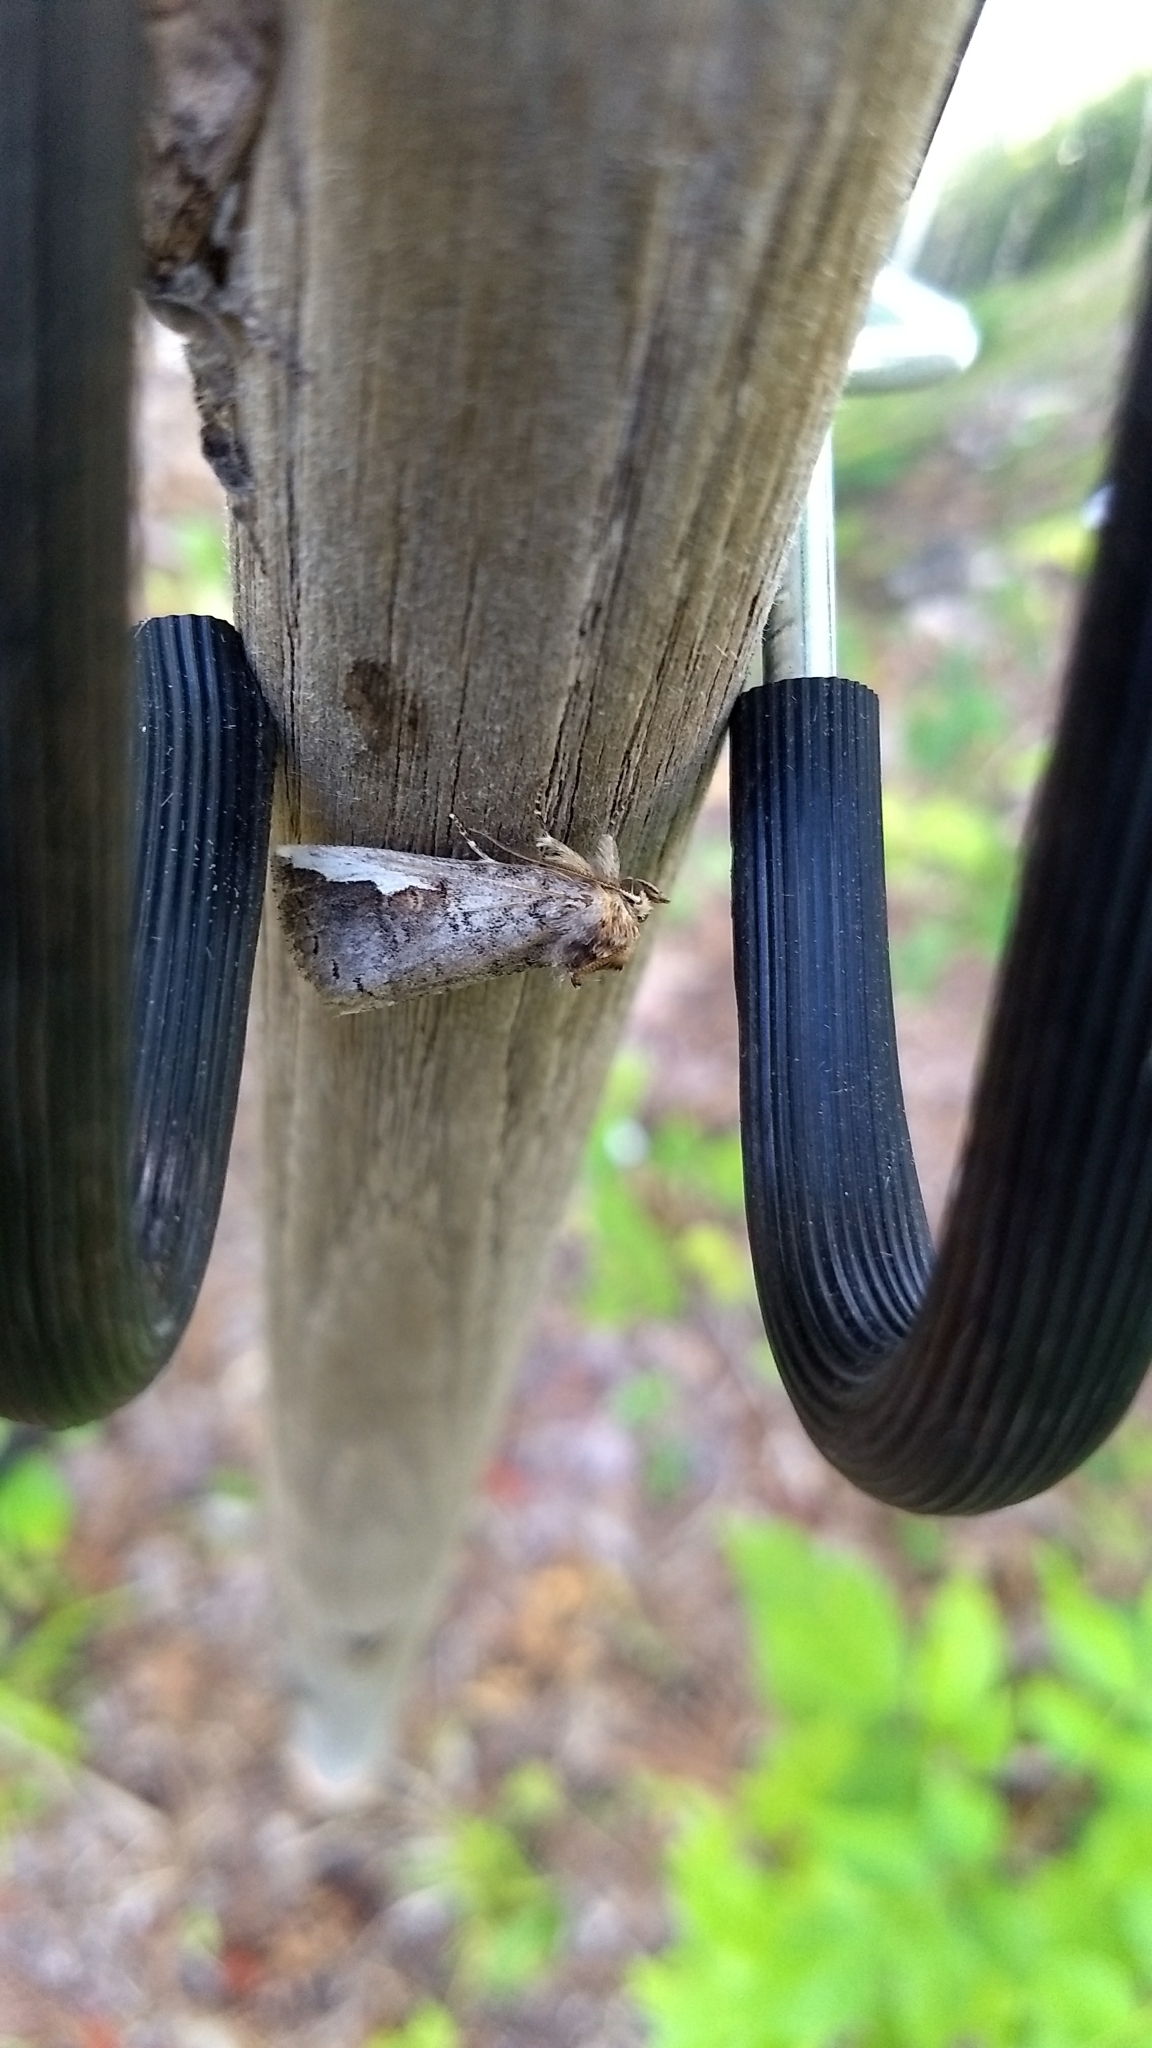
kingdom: Animalia
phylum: Arthropoda
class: Insecta
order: Lepidoptera
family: Notodontidae
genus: Symmerista
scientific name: Symmerista
